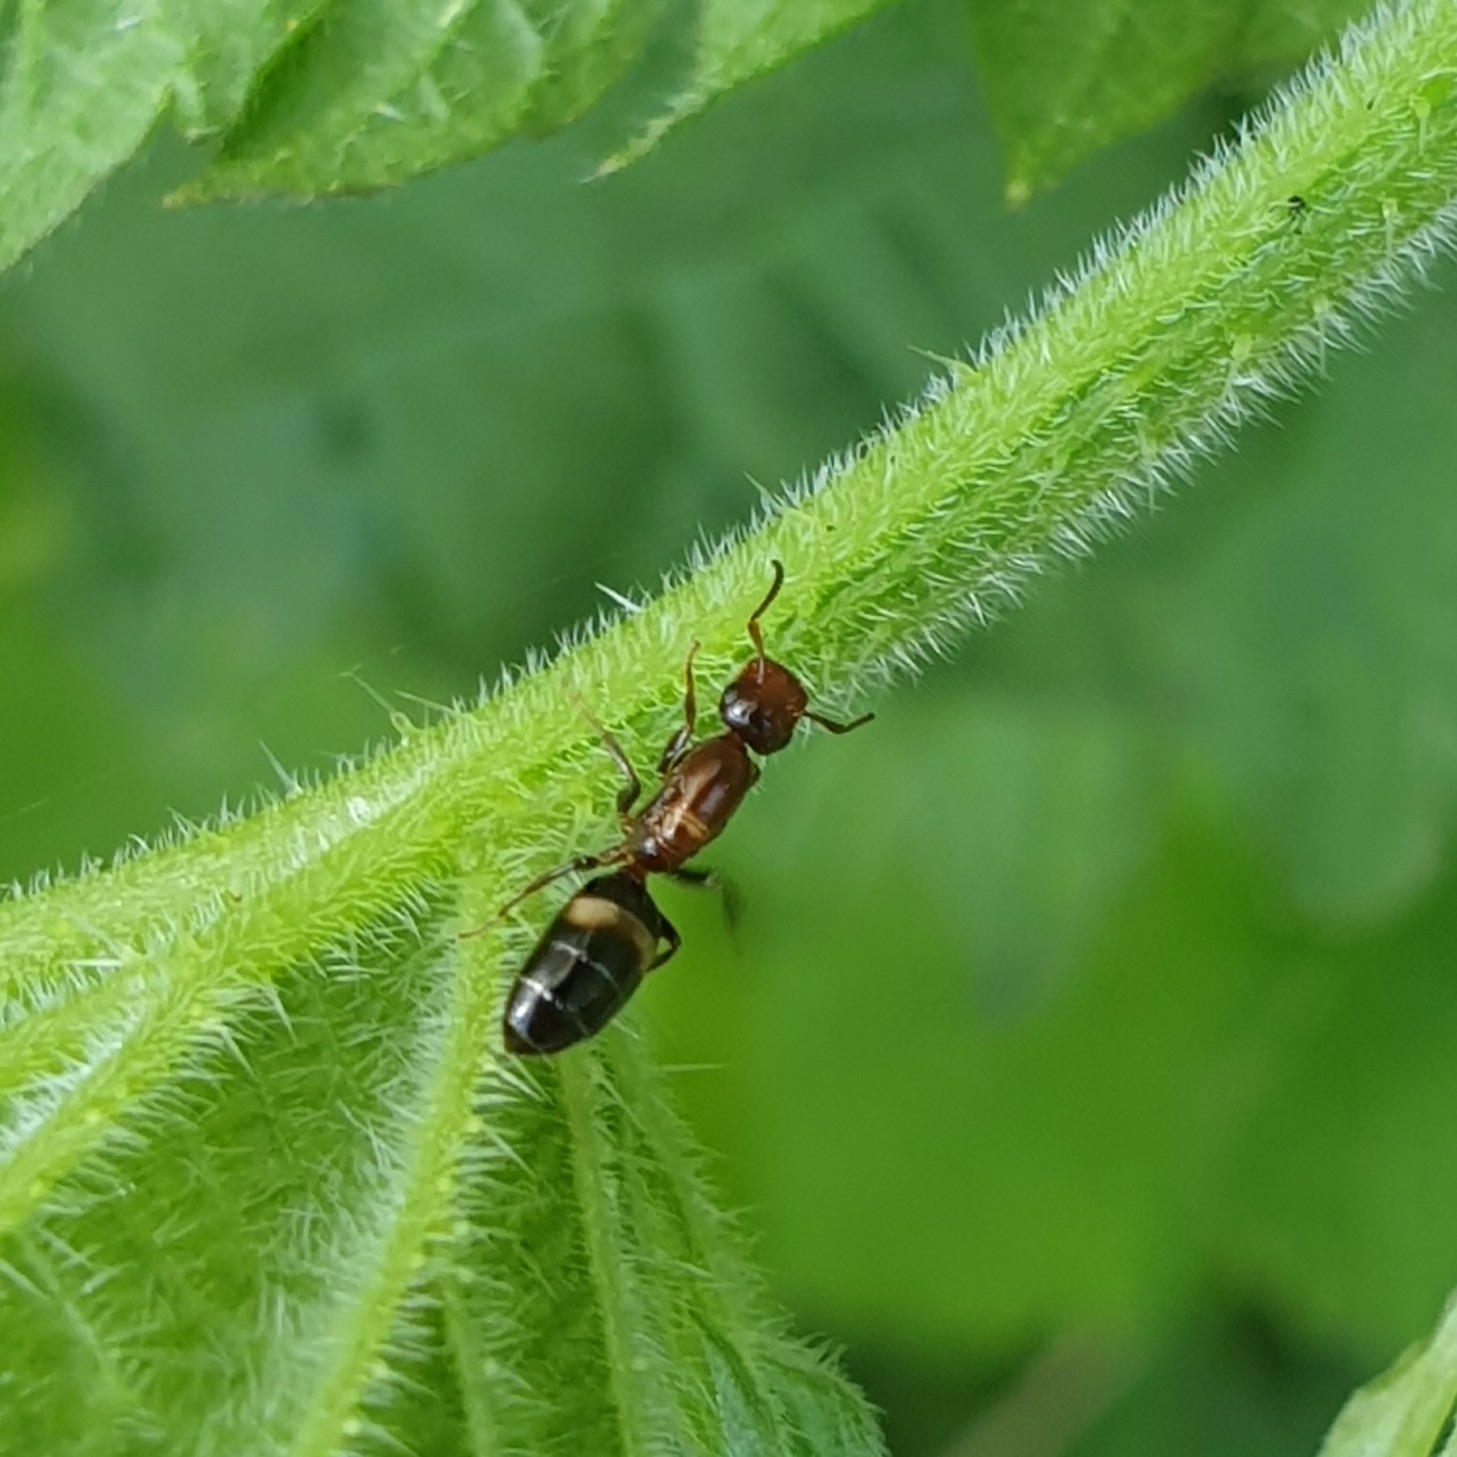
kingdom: Animalia
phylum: Arthropoda
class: Insecta
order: Hymenoptera
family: Formicidae
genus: Camponotus
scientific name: Camponotus truncatus
